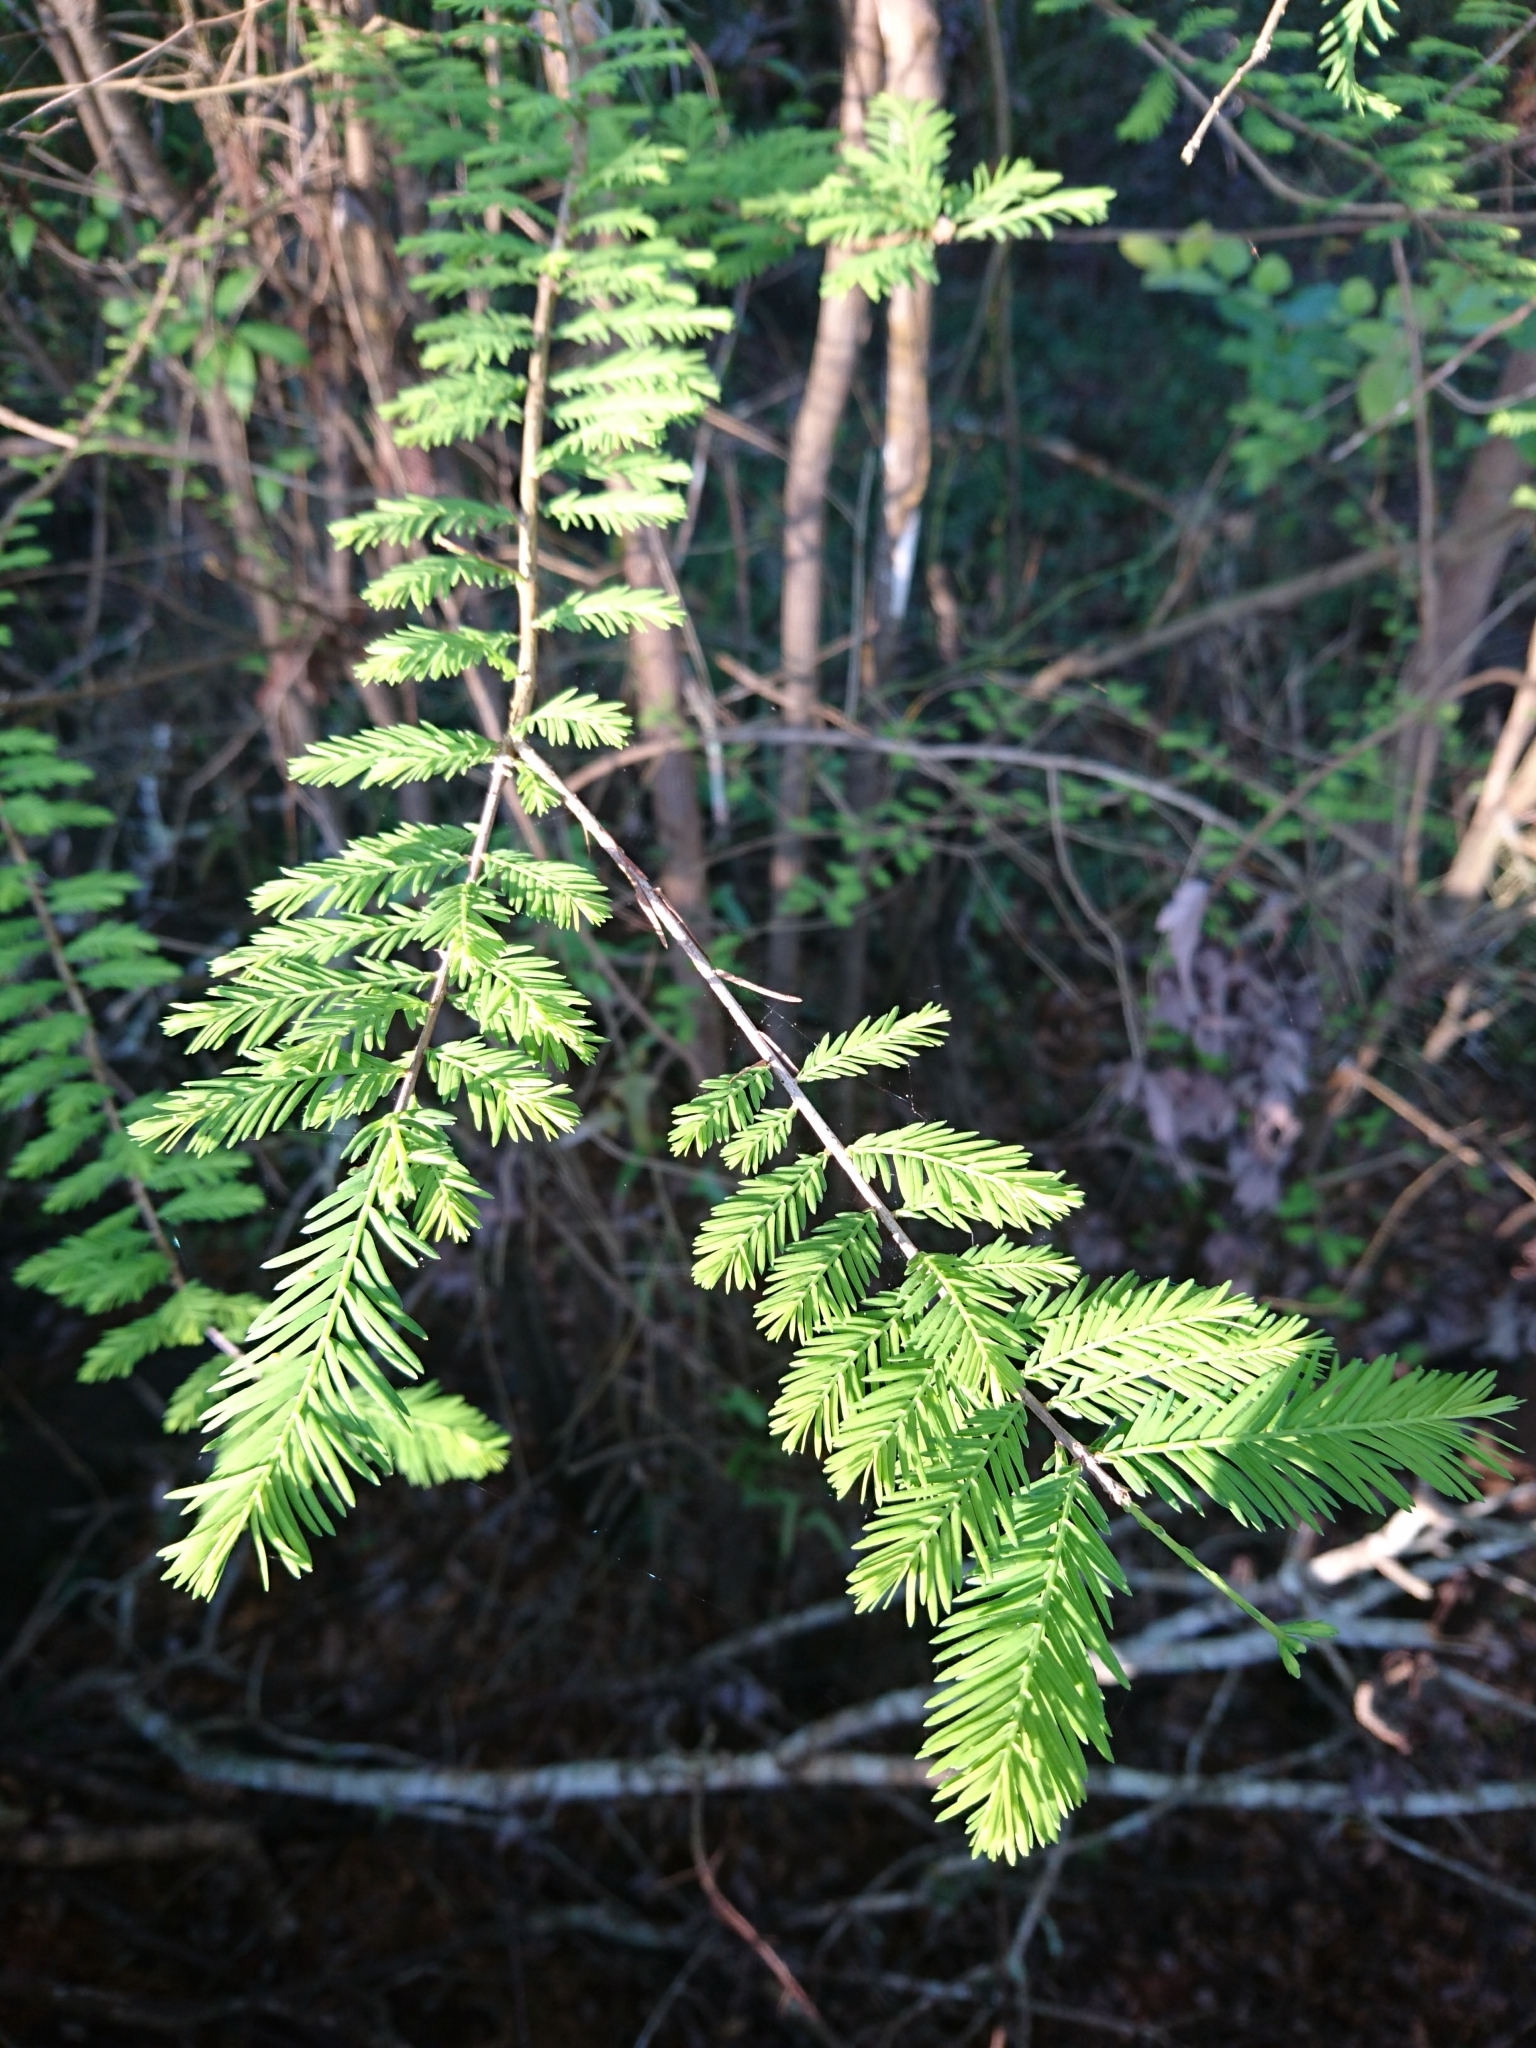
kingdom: Plantae
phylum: Tracheophyta
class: Pinopsida
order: Pinales
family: Cupressaceae
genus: Taxodium
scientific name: Taxodium distichum
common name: Bald cypress
